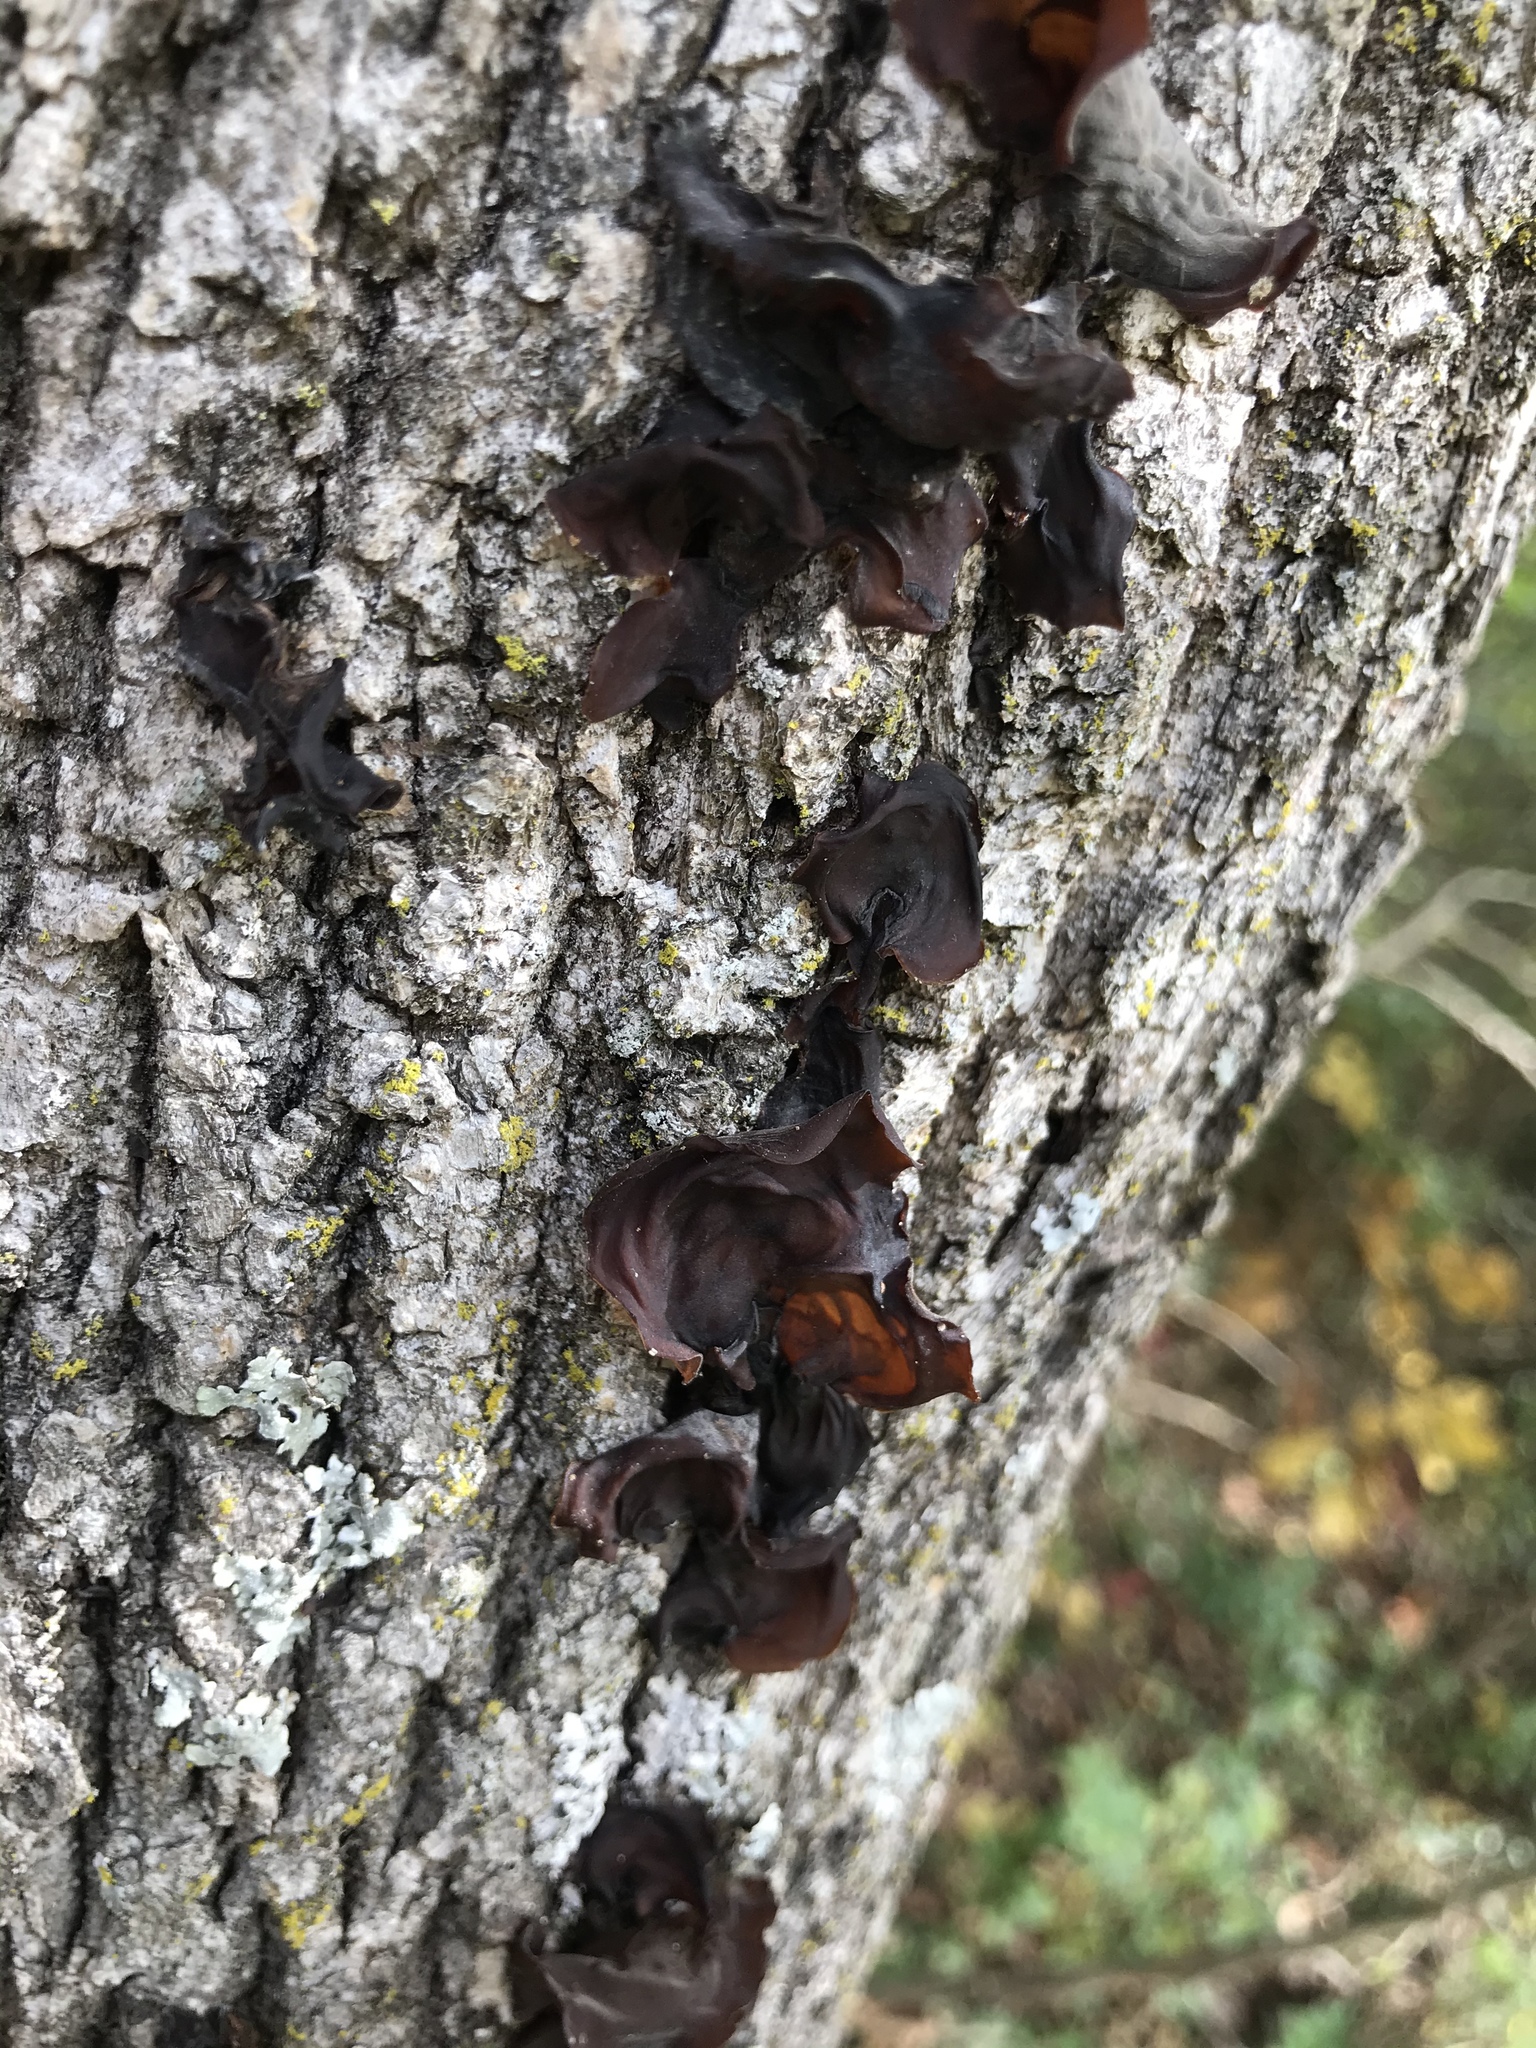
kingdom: Fungi
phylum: Basidiomycota
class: Agaricomycetes
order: Auriculariales
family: Auriculariaceae
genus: Exidia
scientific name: Exidia
